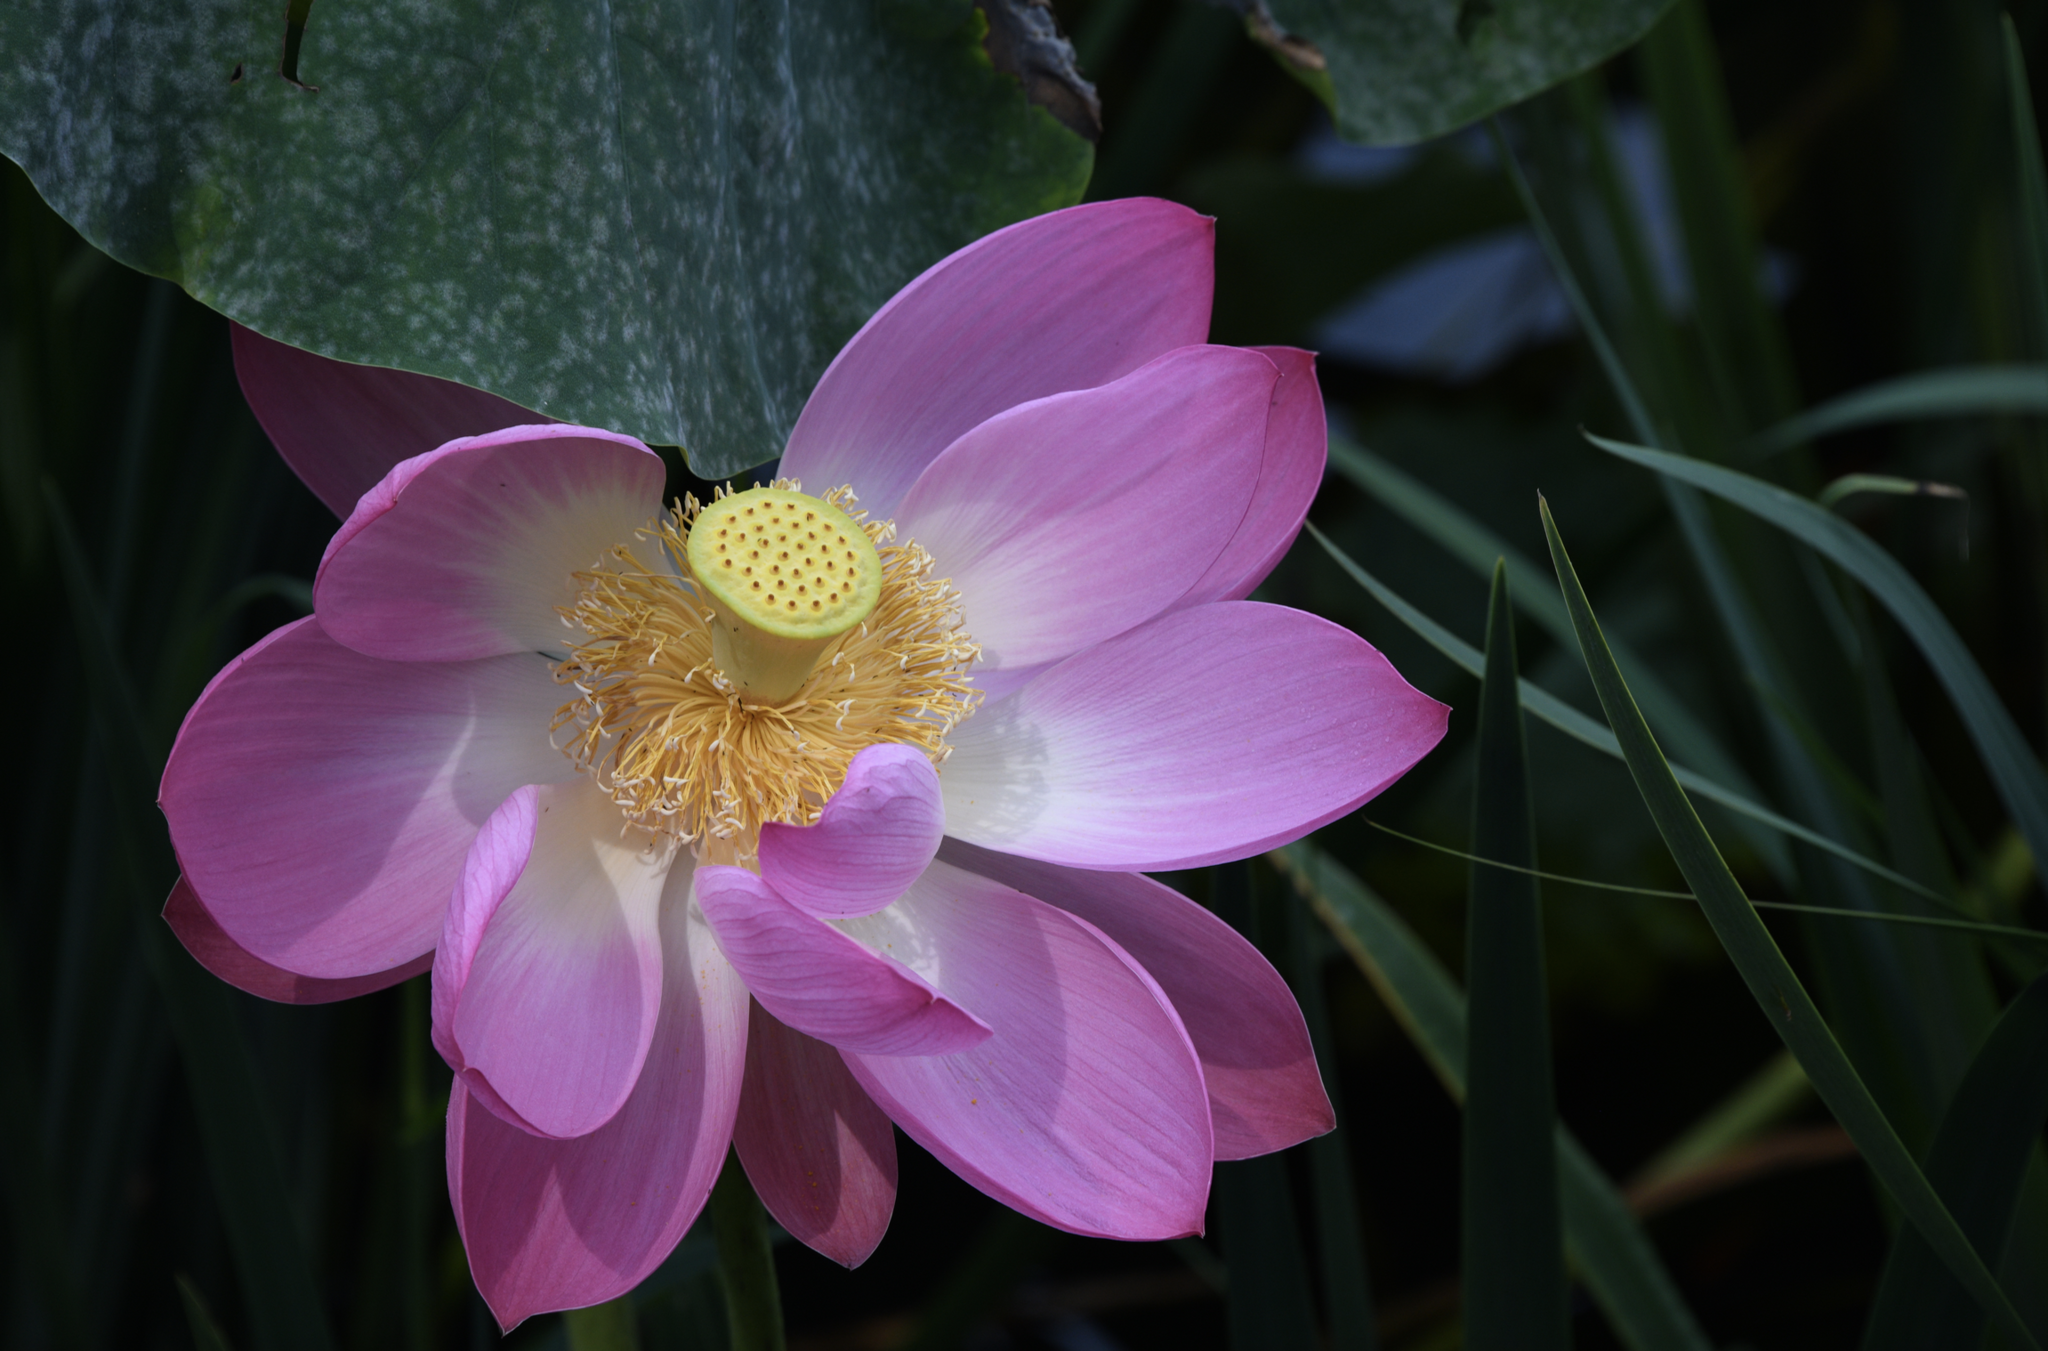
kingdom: Plantae
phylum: Tracheophyta
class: Magnoliopsida
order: Proteales
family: Nelumbonaceae
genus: Nelumbo
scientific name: Nelumbo nucifera
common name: Sacred lotus
